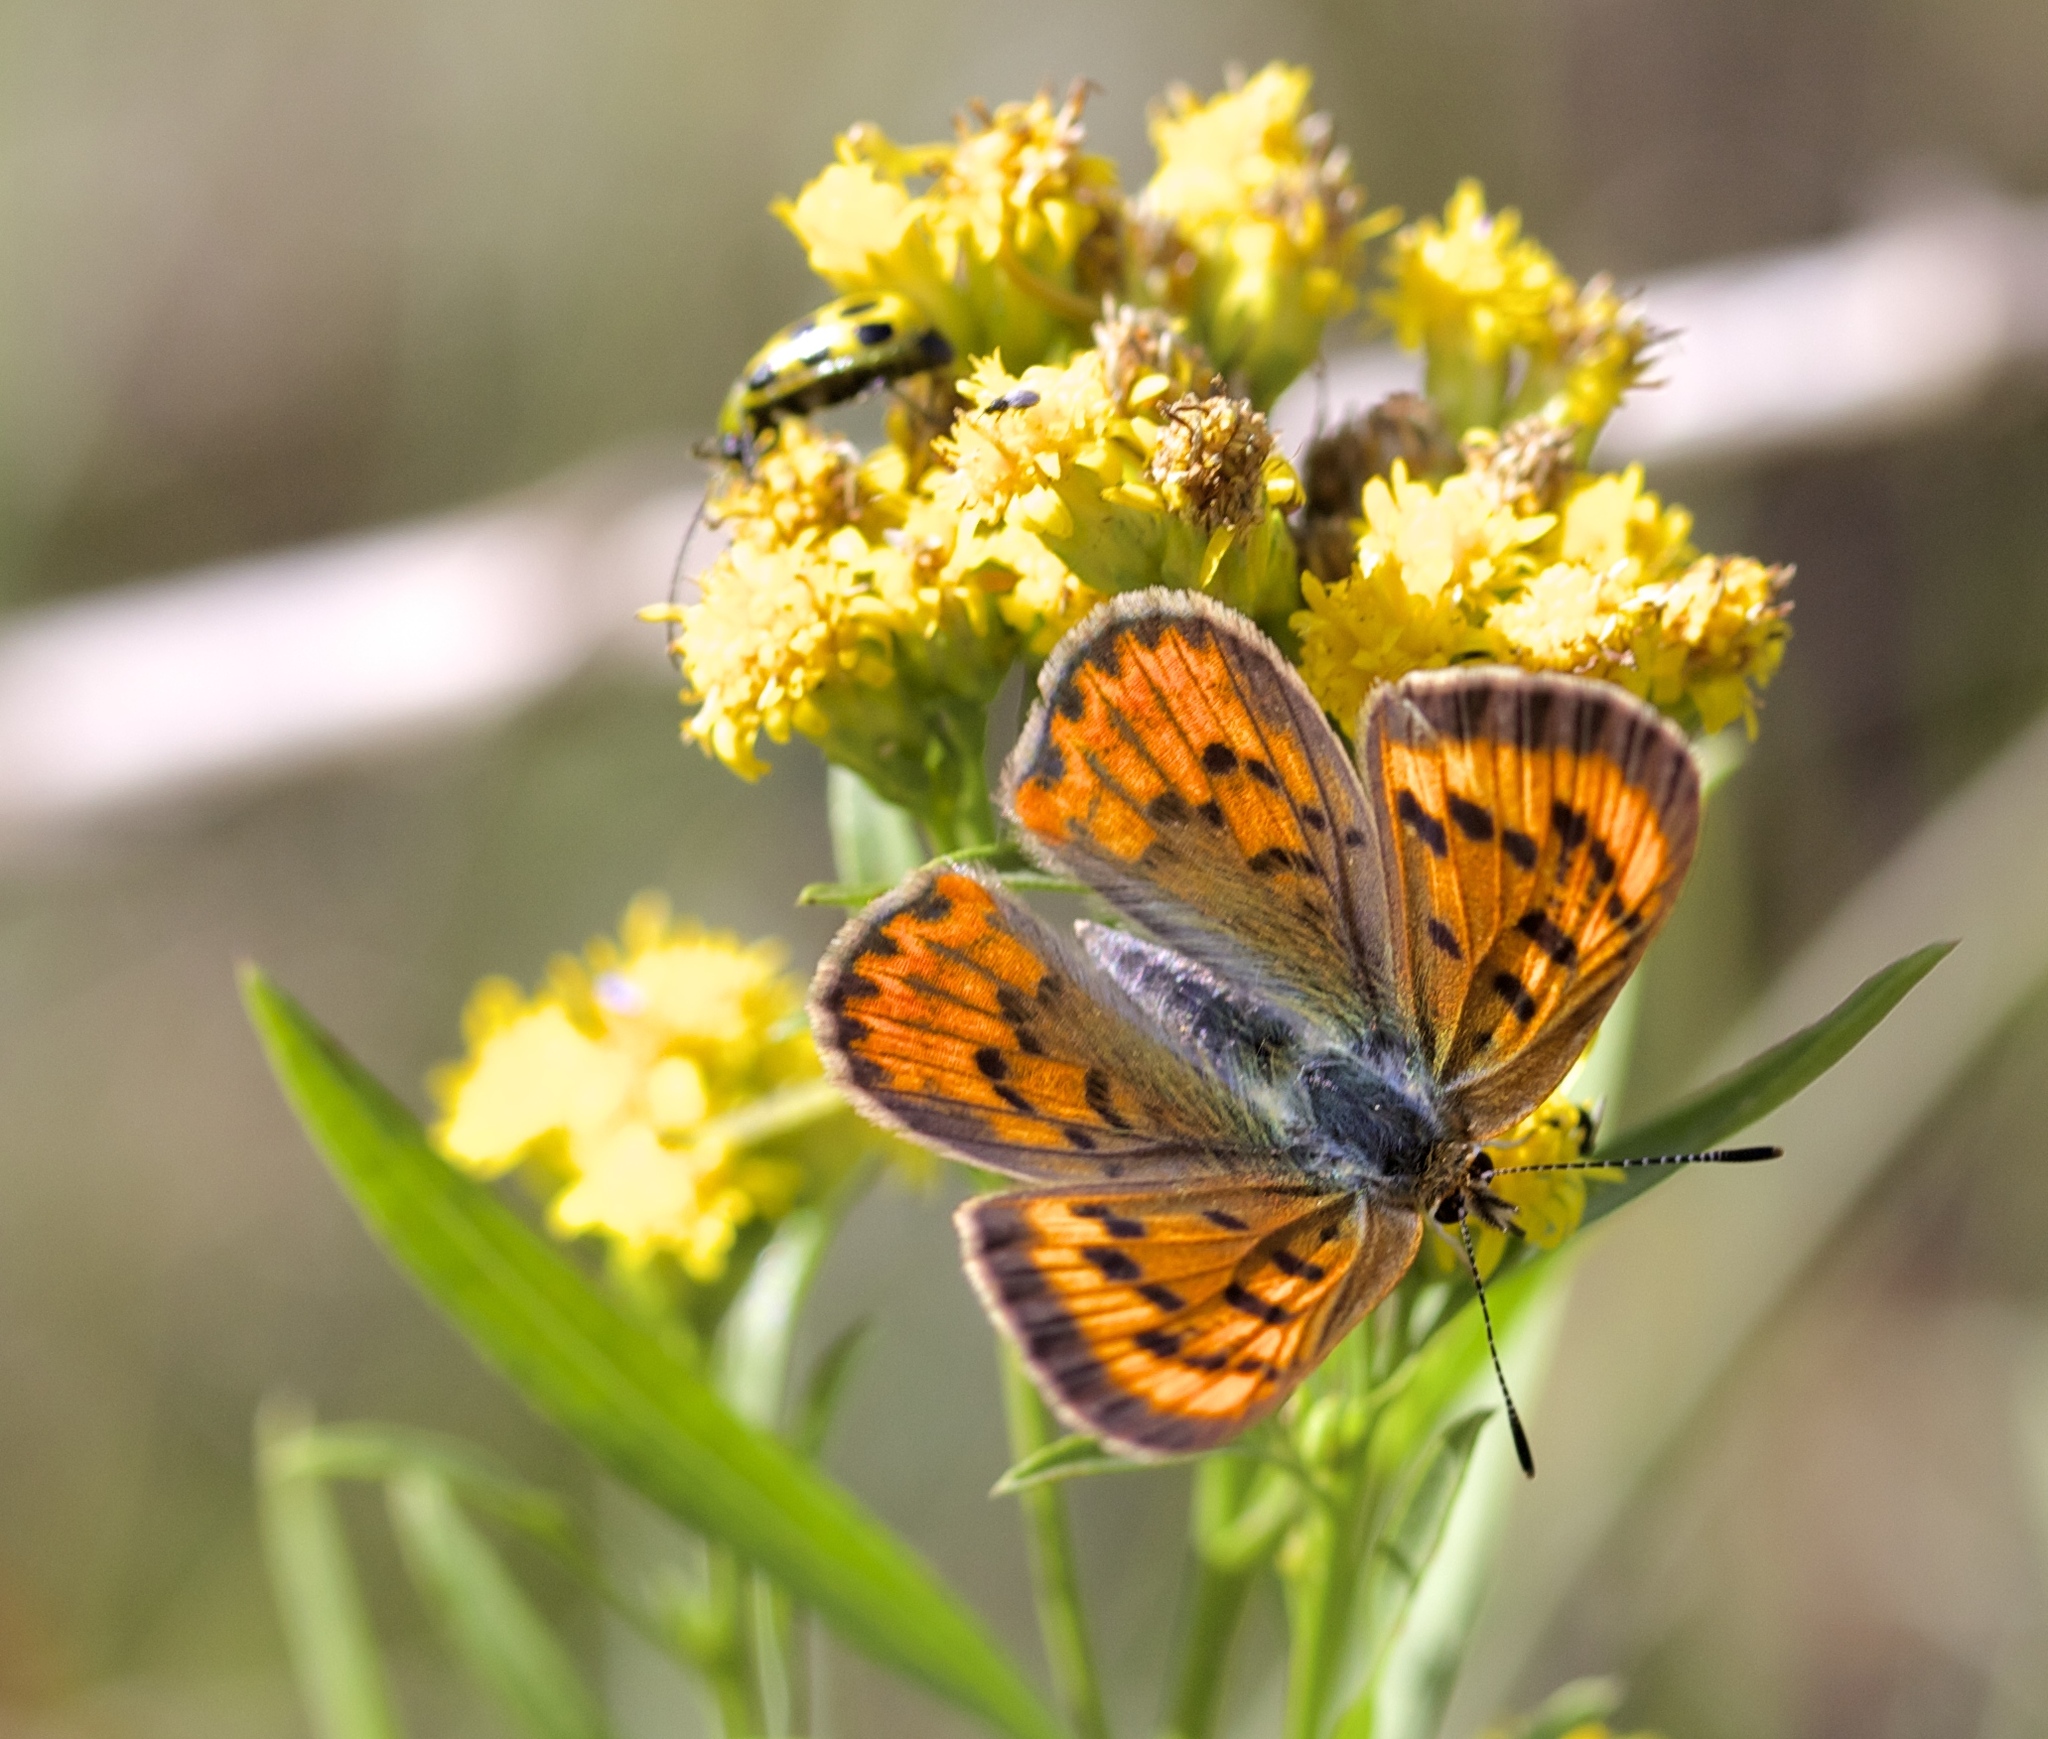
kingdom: Animalia
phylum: Arthropoda
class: Insecta
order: Lepidoptera
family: Lycaenidae
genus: Tharsalea
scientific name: Tharsalea helloides
